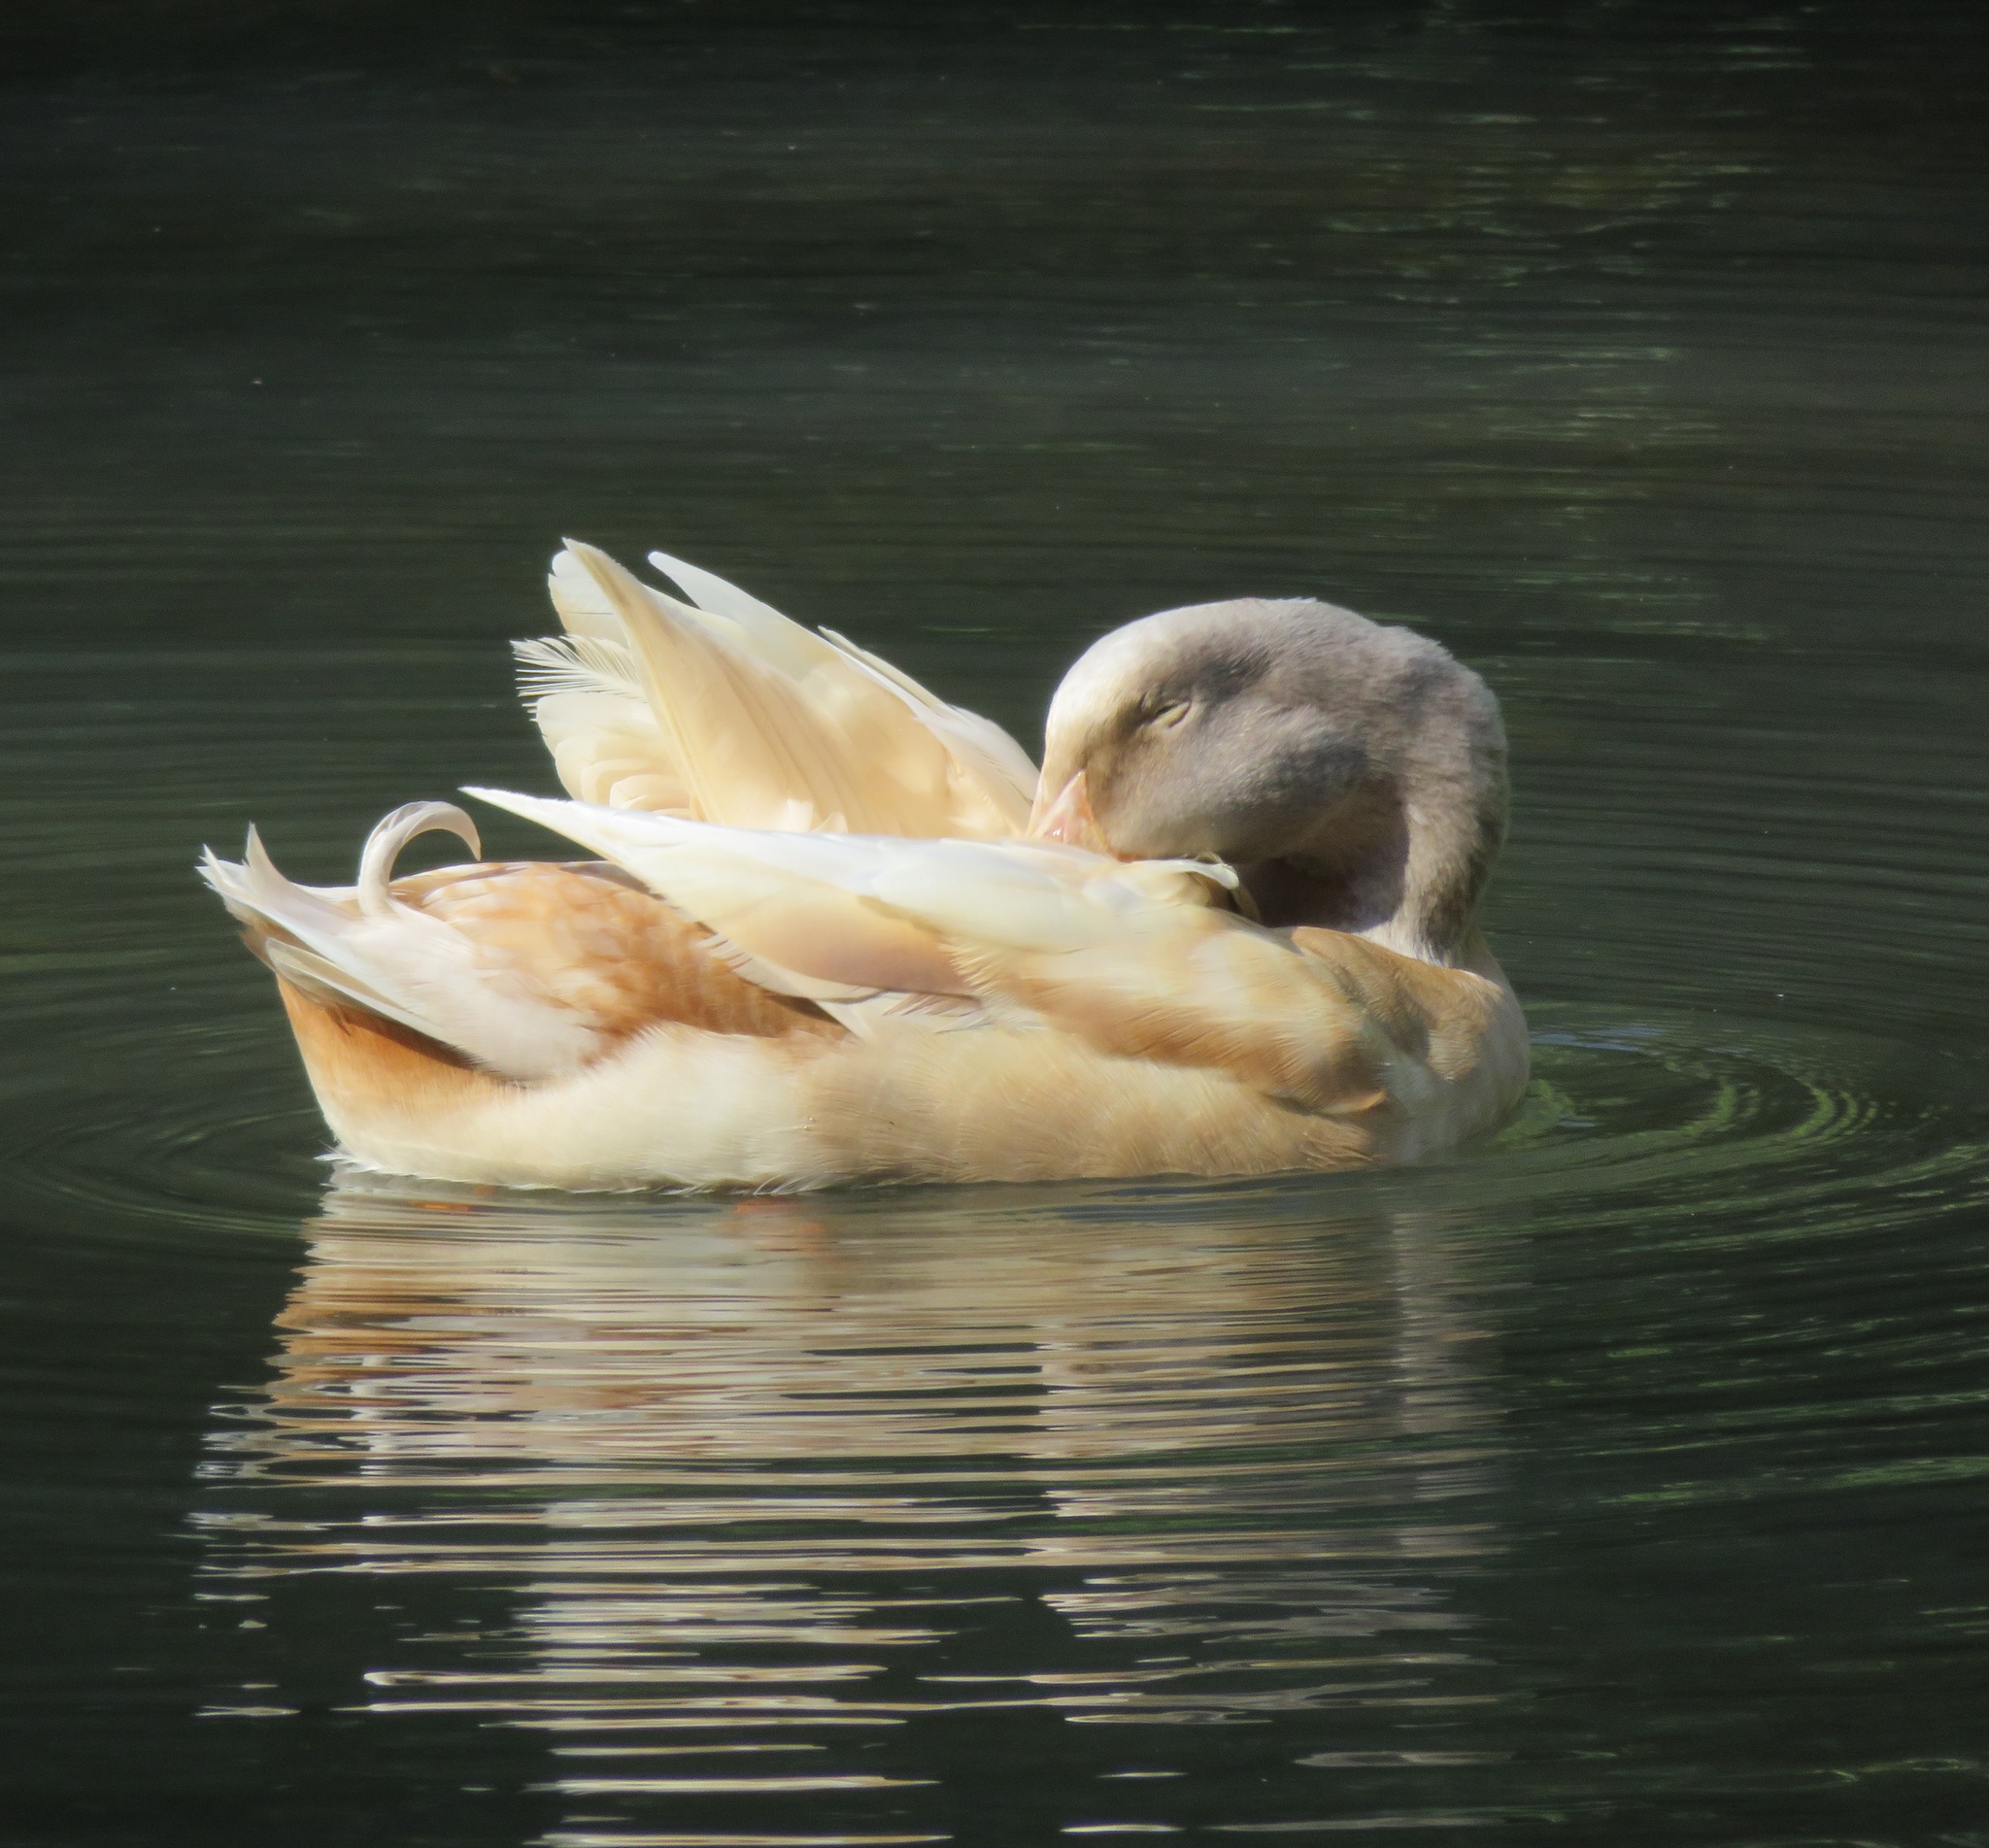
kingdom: Animalia
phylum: Chordata
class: Aves
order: Anseriformes
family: Anatidae
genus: Anas
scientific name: Anas platyrhynchos
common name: Mallard
